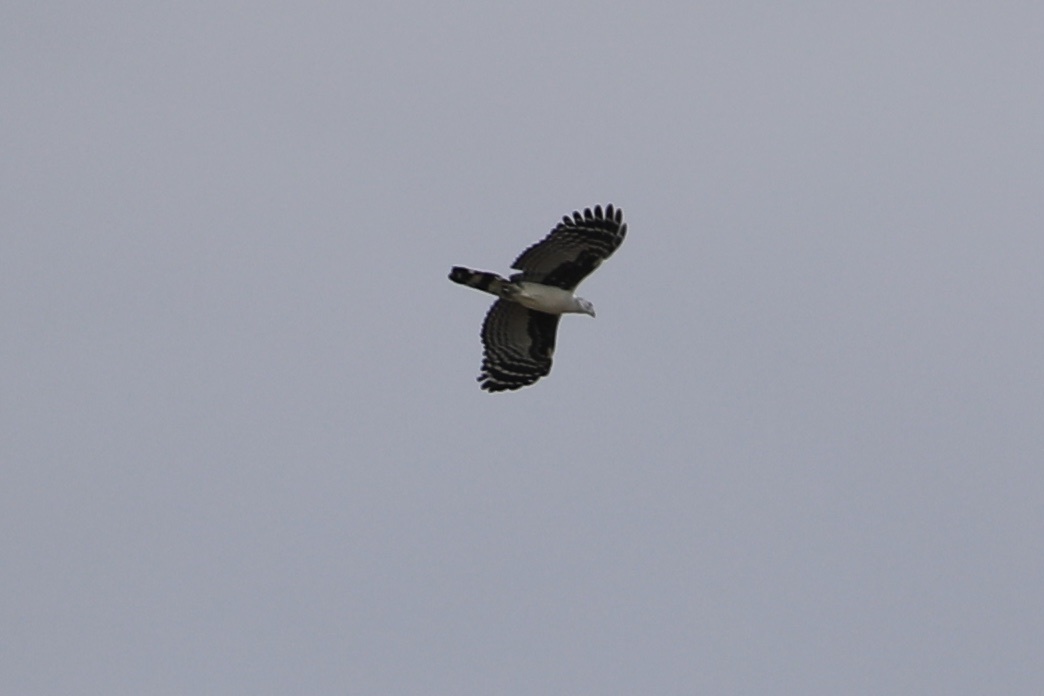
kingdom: Animalia
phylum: Chordata
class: Aves
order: Accipitriformes
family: Accipitridae
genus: Leptodon
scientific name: Leptodon cayanensis
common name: Gray-headed kite
